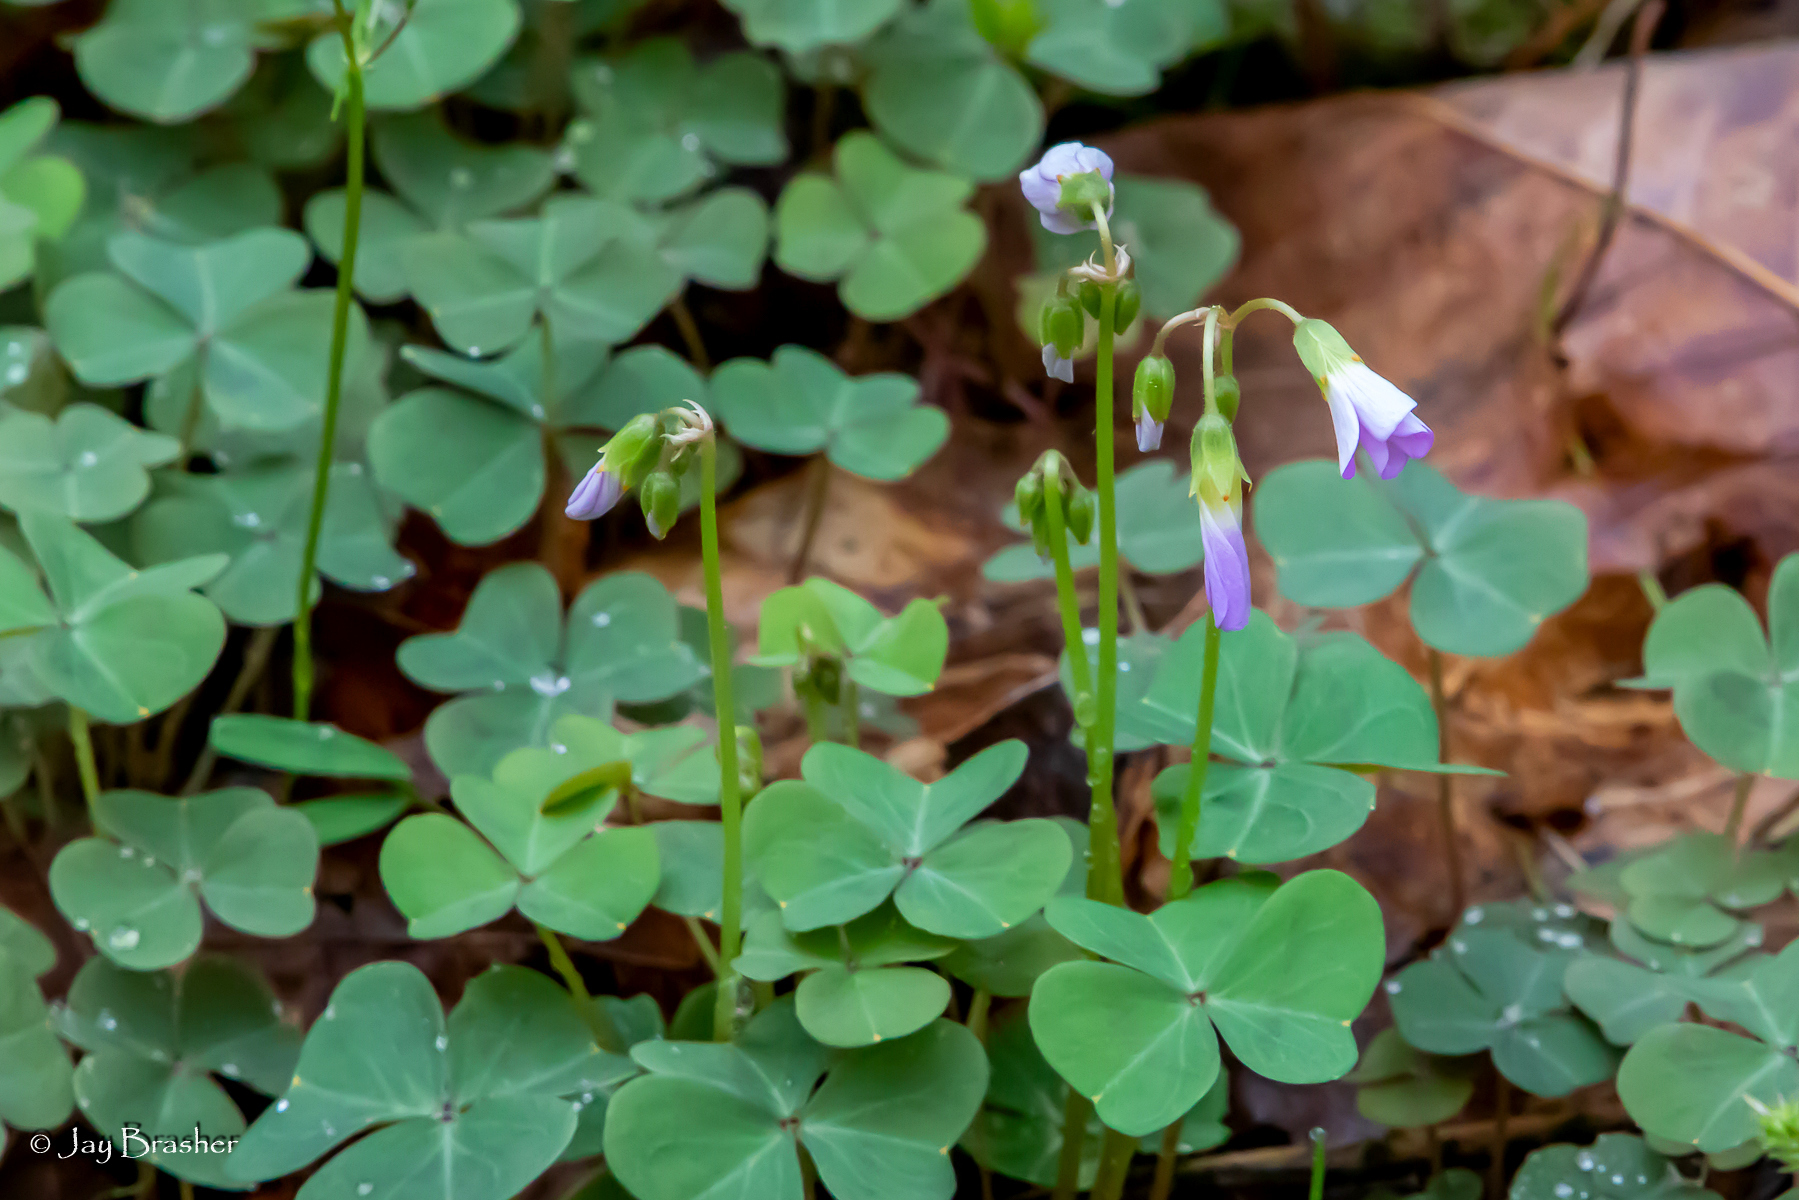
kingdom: Plantae
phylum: Tracheophyta
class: Magnoliopsida
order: Oxalidales
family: Oxalidaceae
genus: Oxalis
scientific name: Oxalis violacea
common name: Violet wood-sorrel
